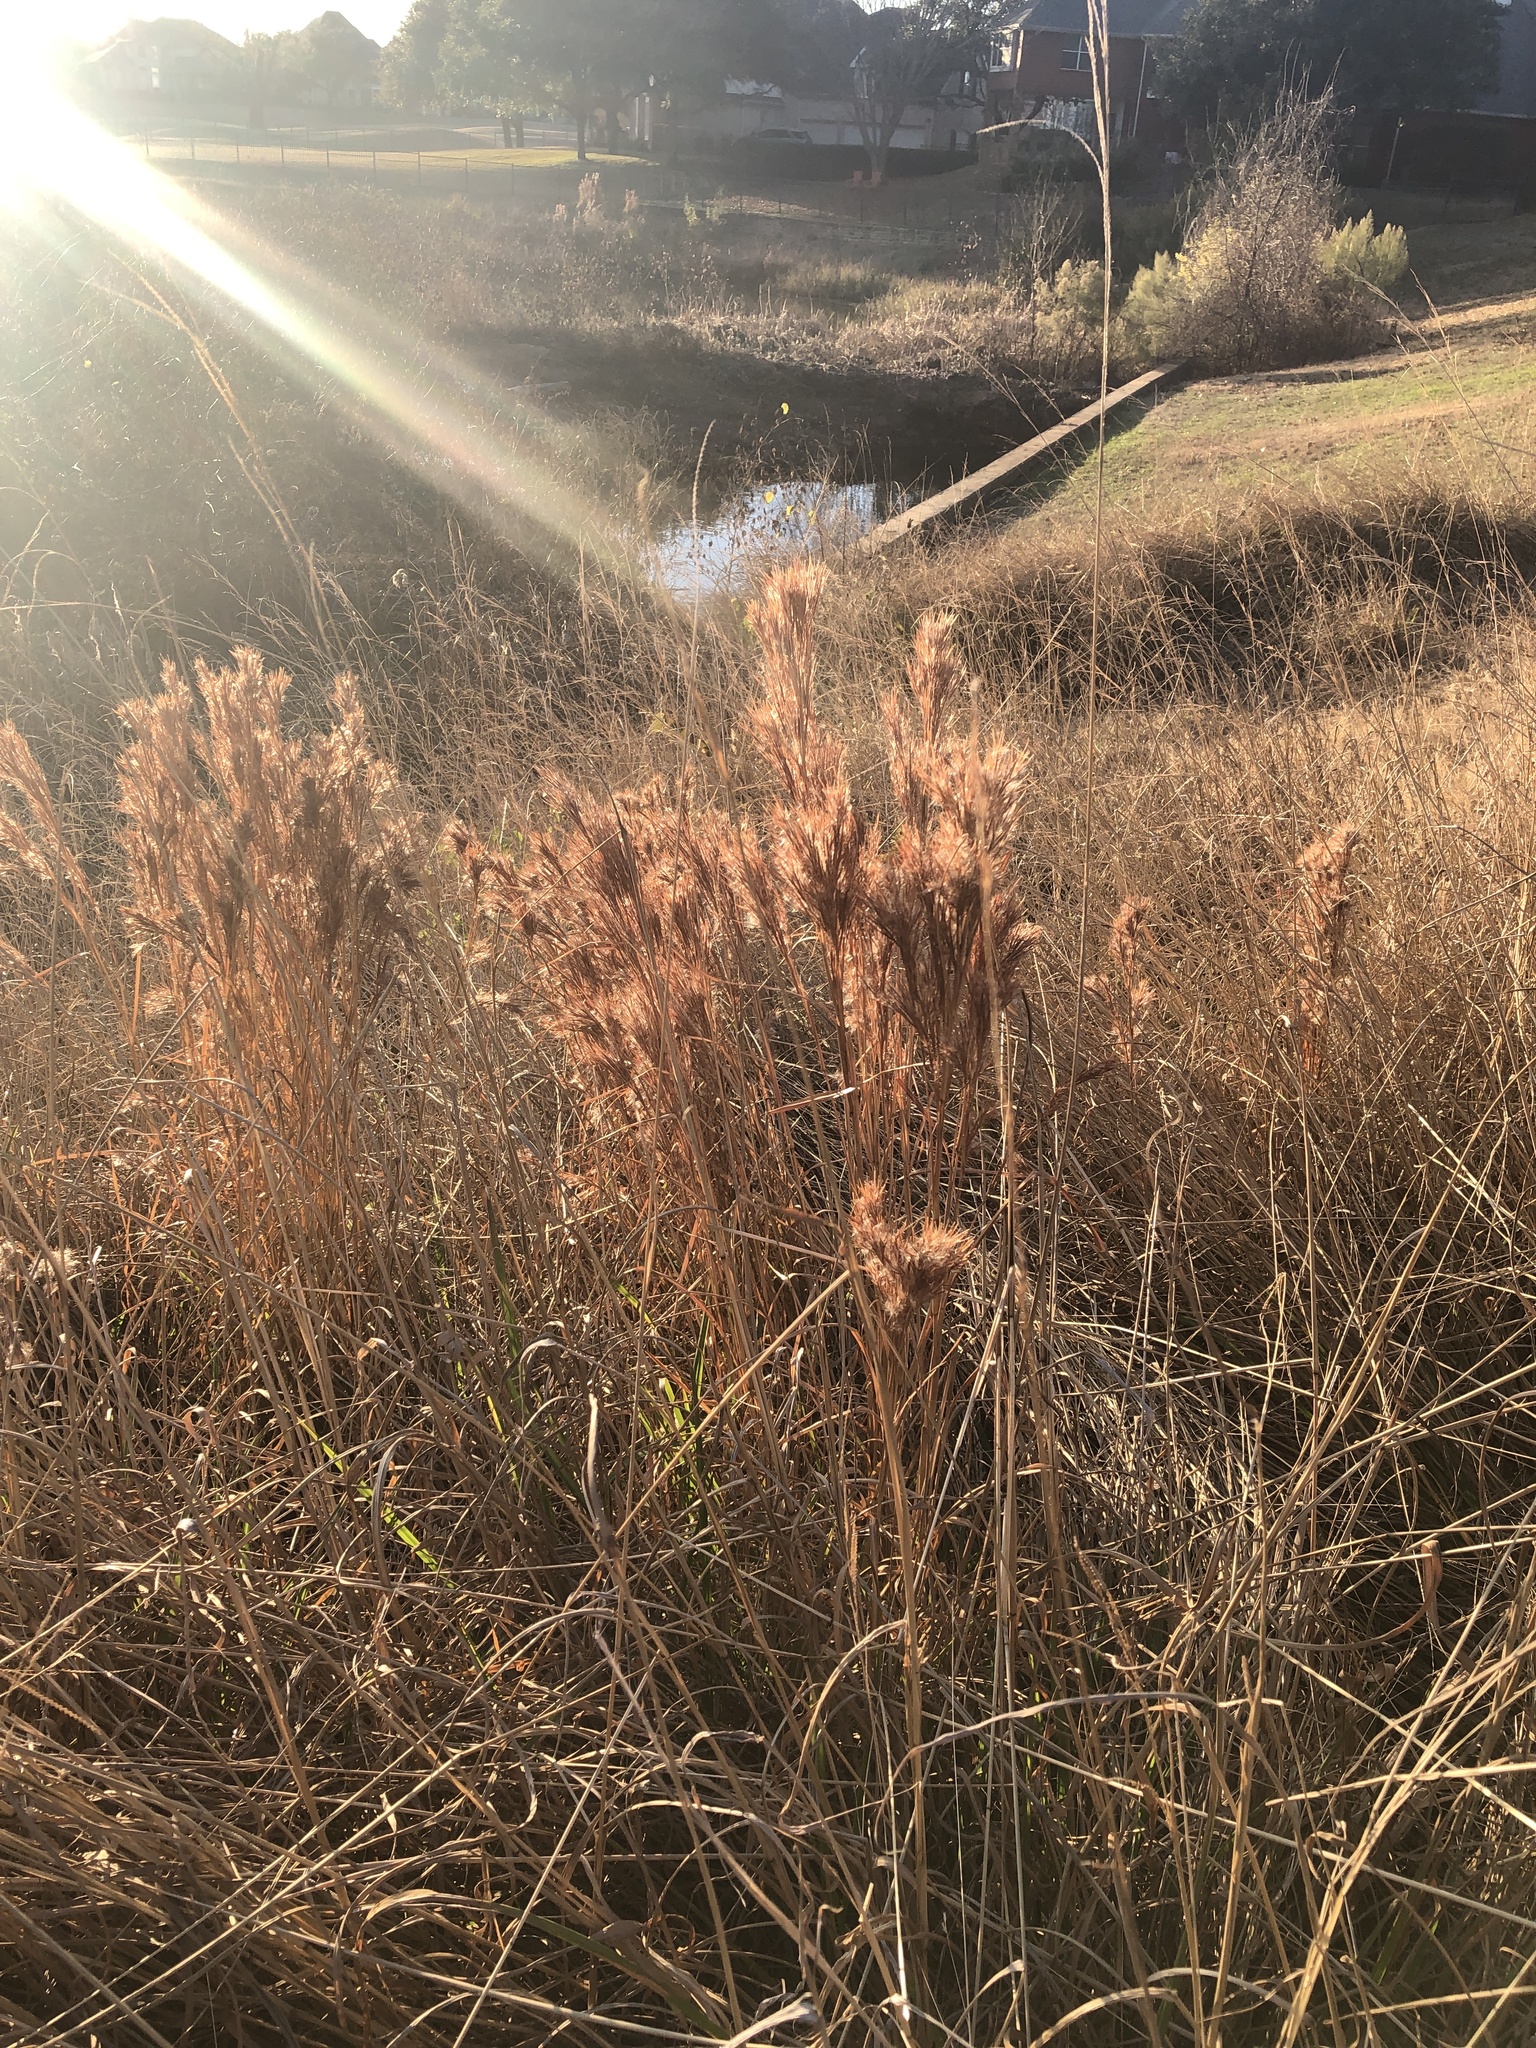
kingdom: Plantae
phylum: Tracheophyta
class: Liliopsida
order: Poales
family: Poaceae
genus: Andropogon
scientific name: Andropogon tenuispatheus
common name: Bushy bluestem
